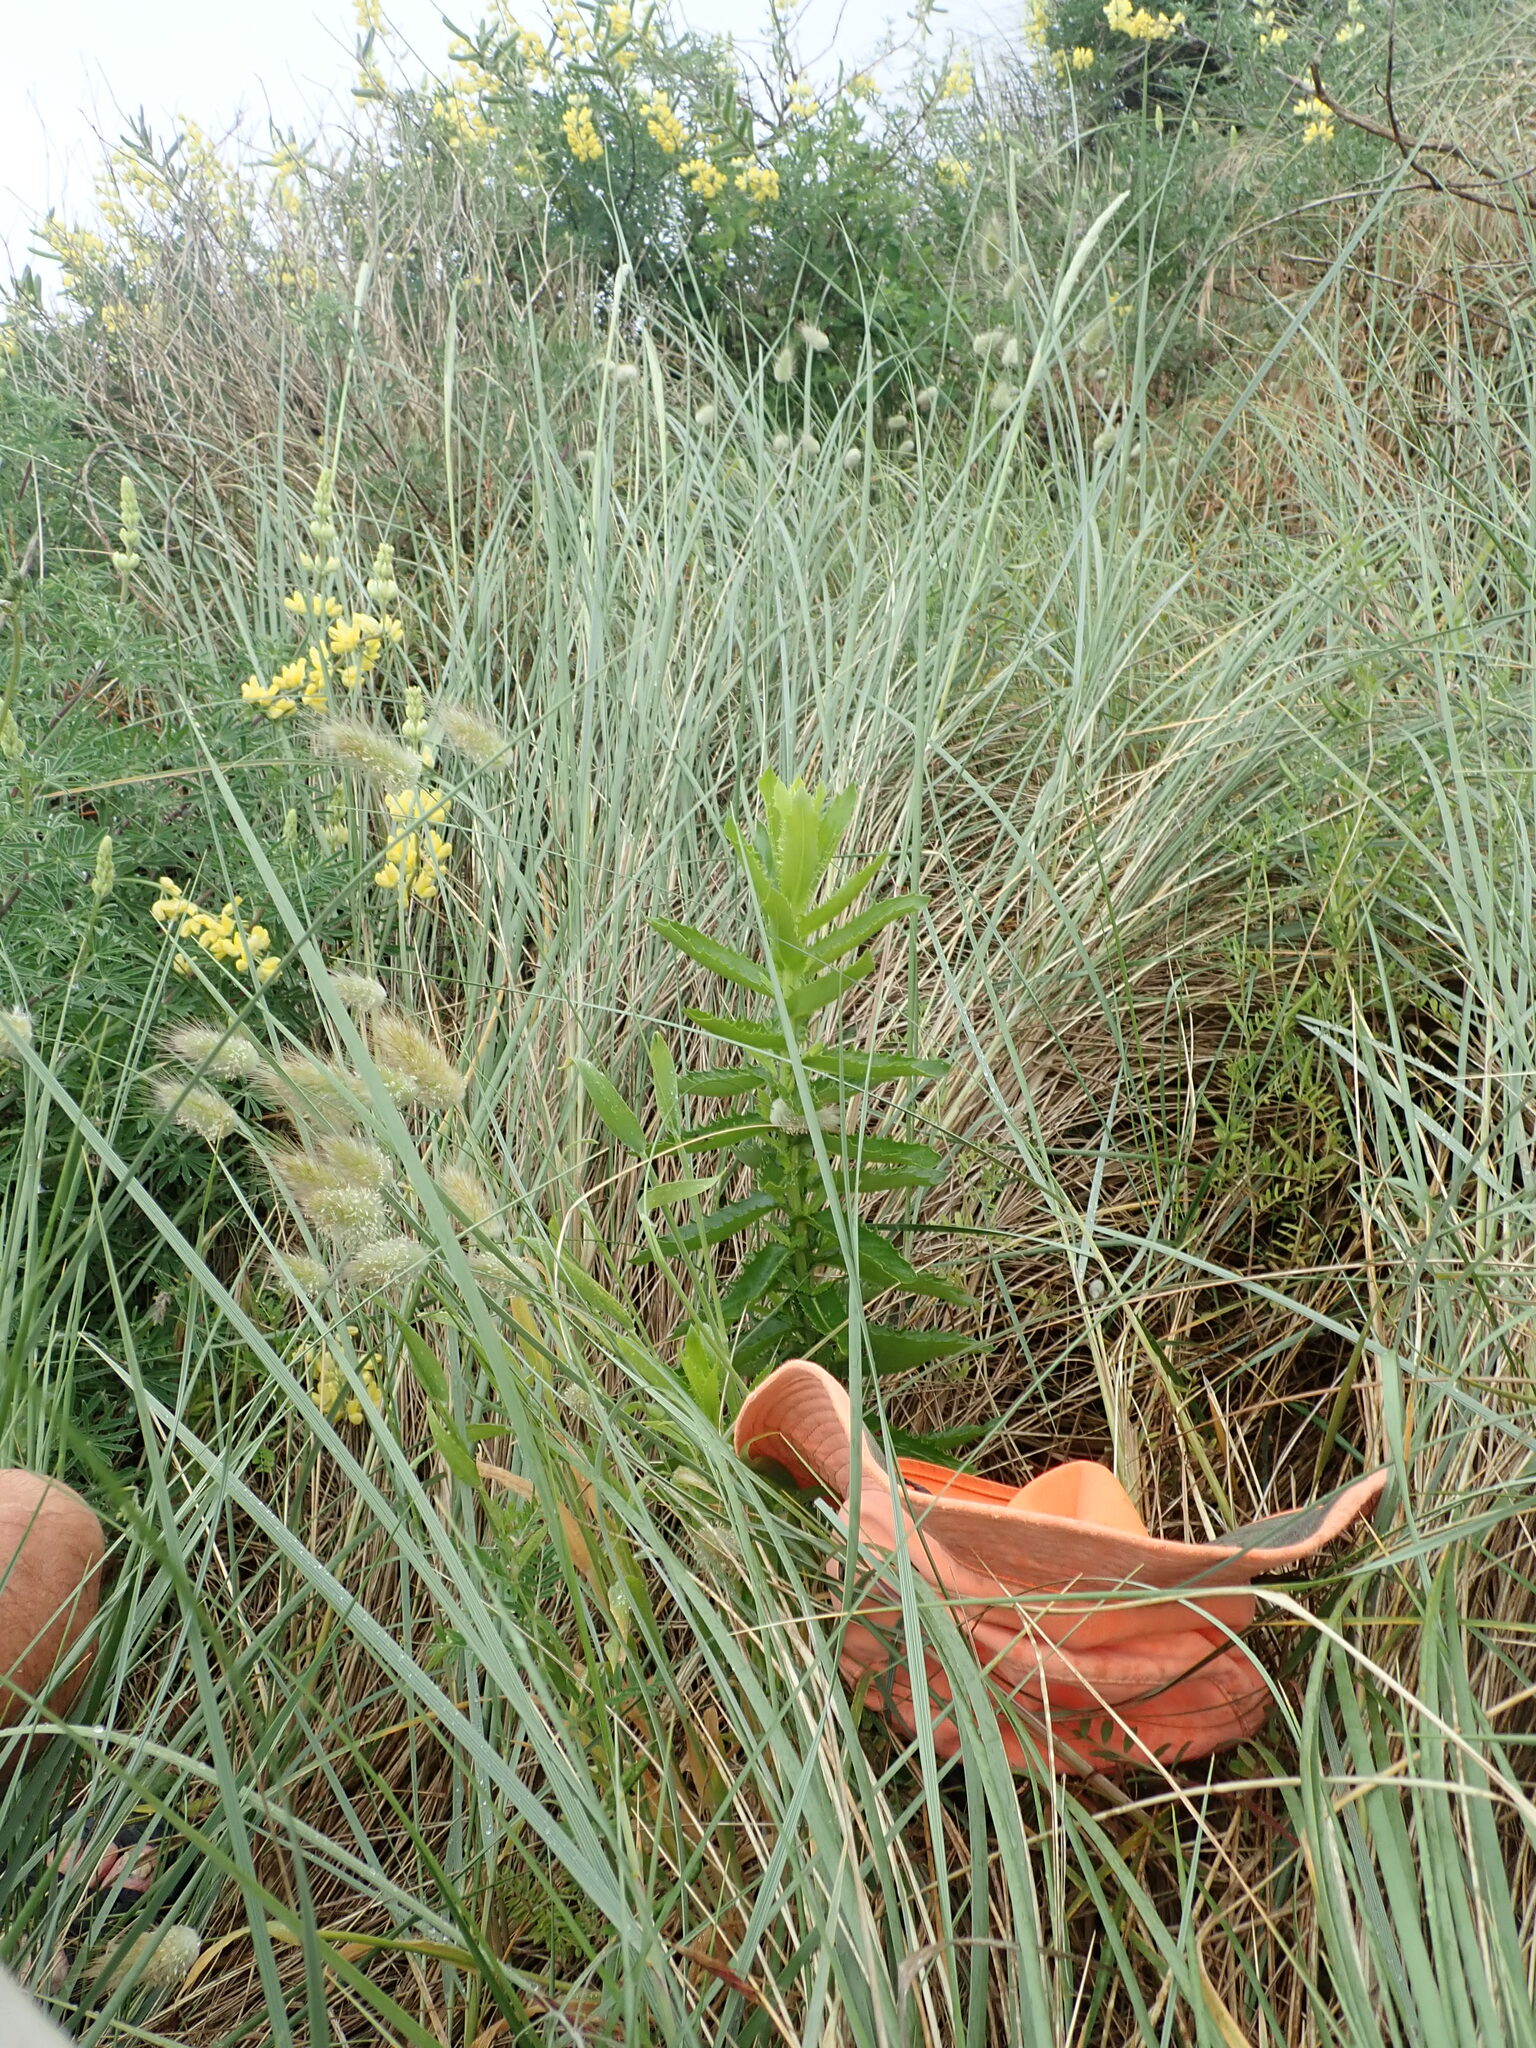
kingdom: Plantae
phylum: Tracheophyta
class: Liliopsida
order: Poales
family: Poaceae
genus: Lagurus
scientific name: Lagurus ovatus
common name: Hare's-tail
